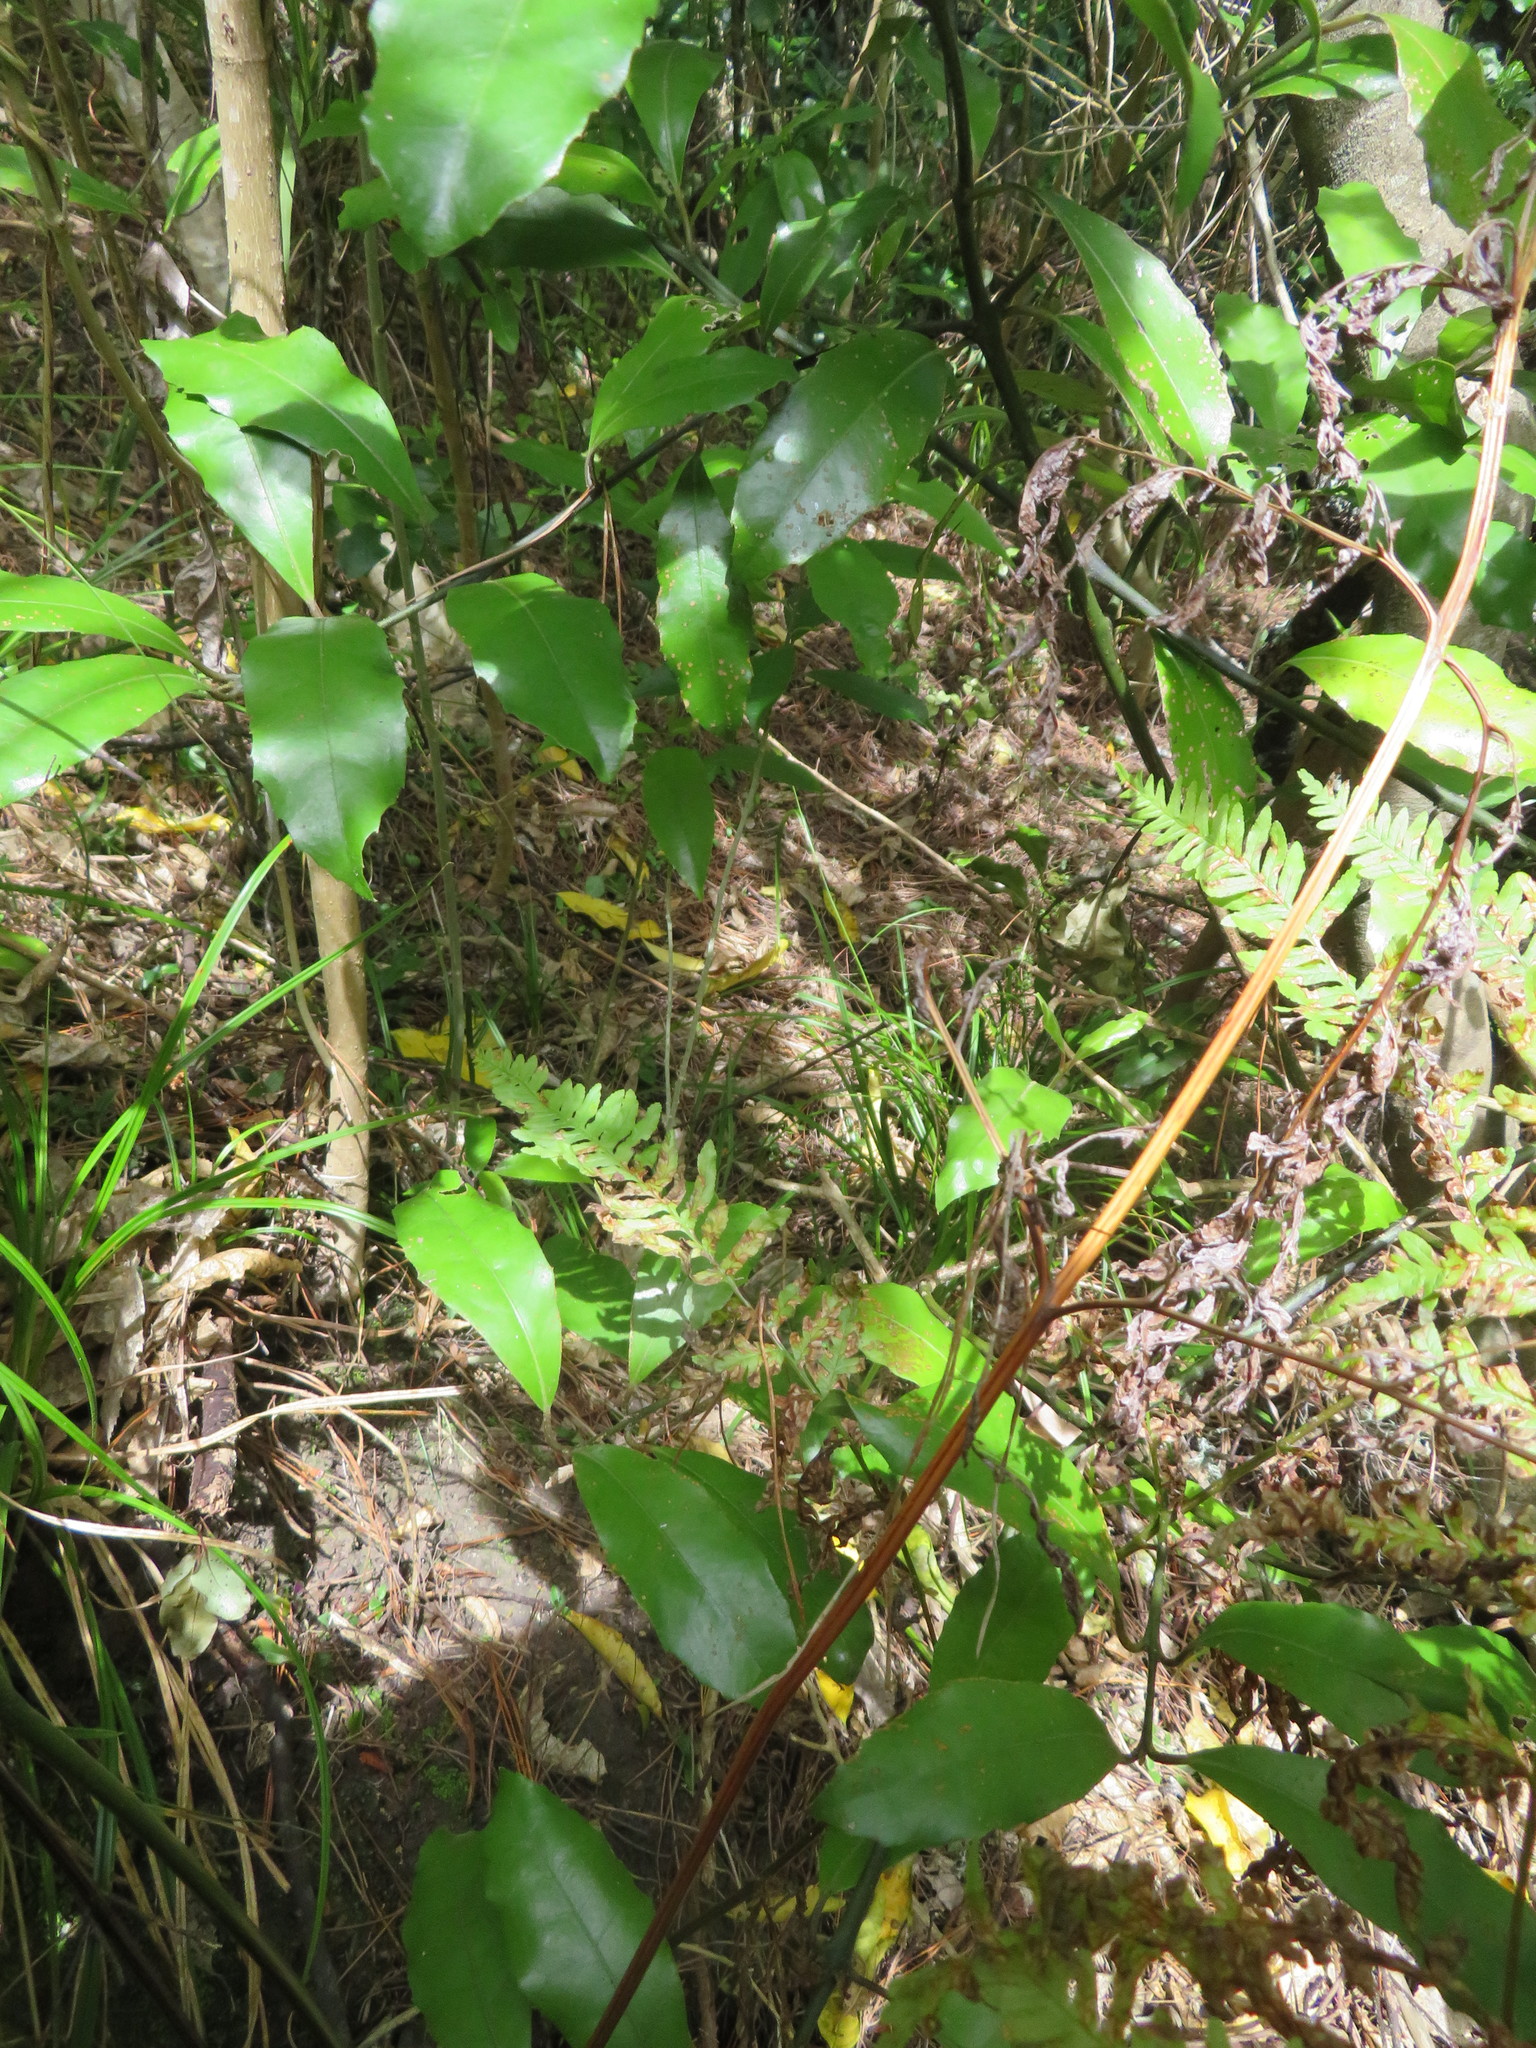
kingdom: Plantae
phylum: Tracheophyta
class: Magnoliopsida
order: Laurales
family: Monimiaceae
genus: Hedycarya
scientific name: Hedycarya arborea
